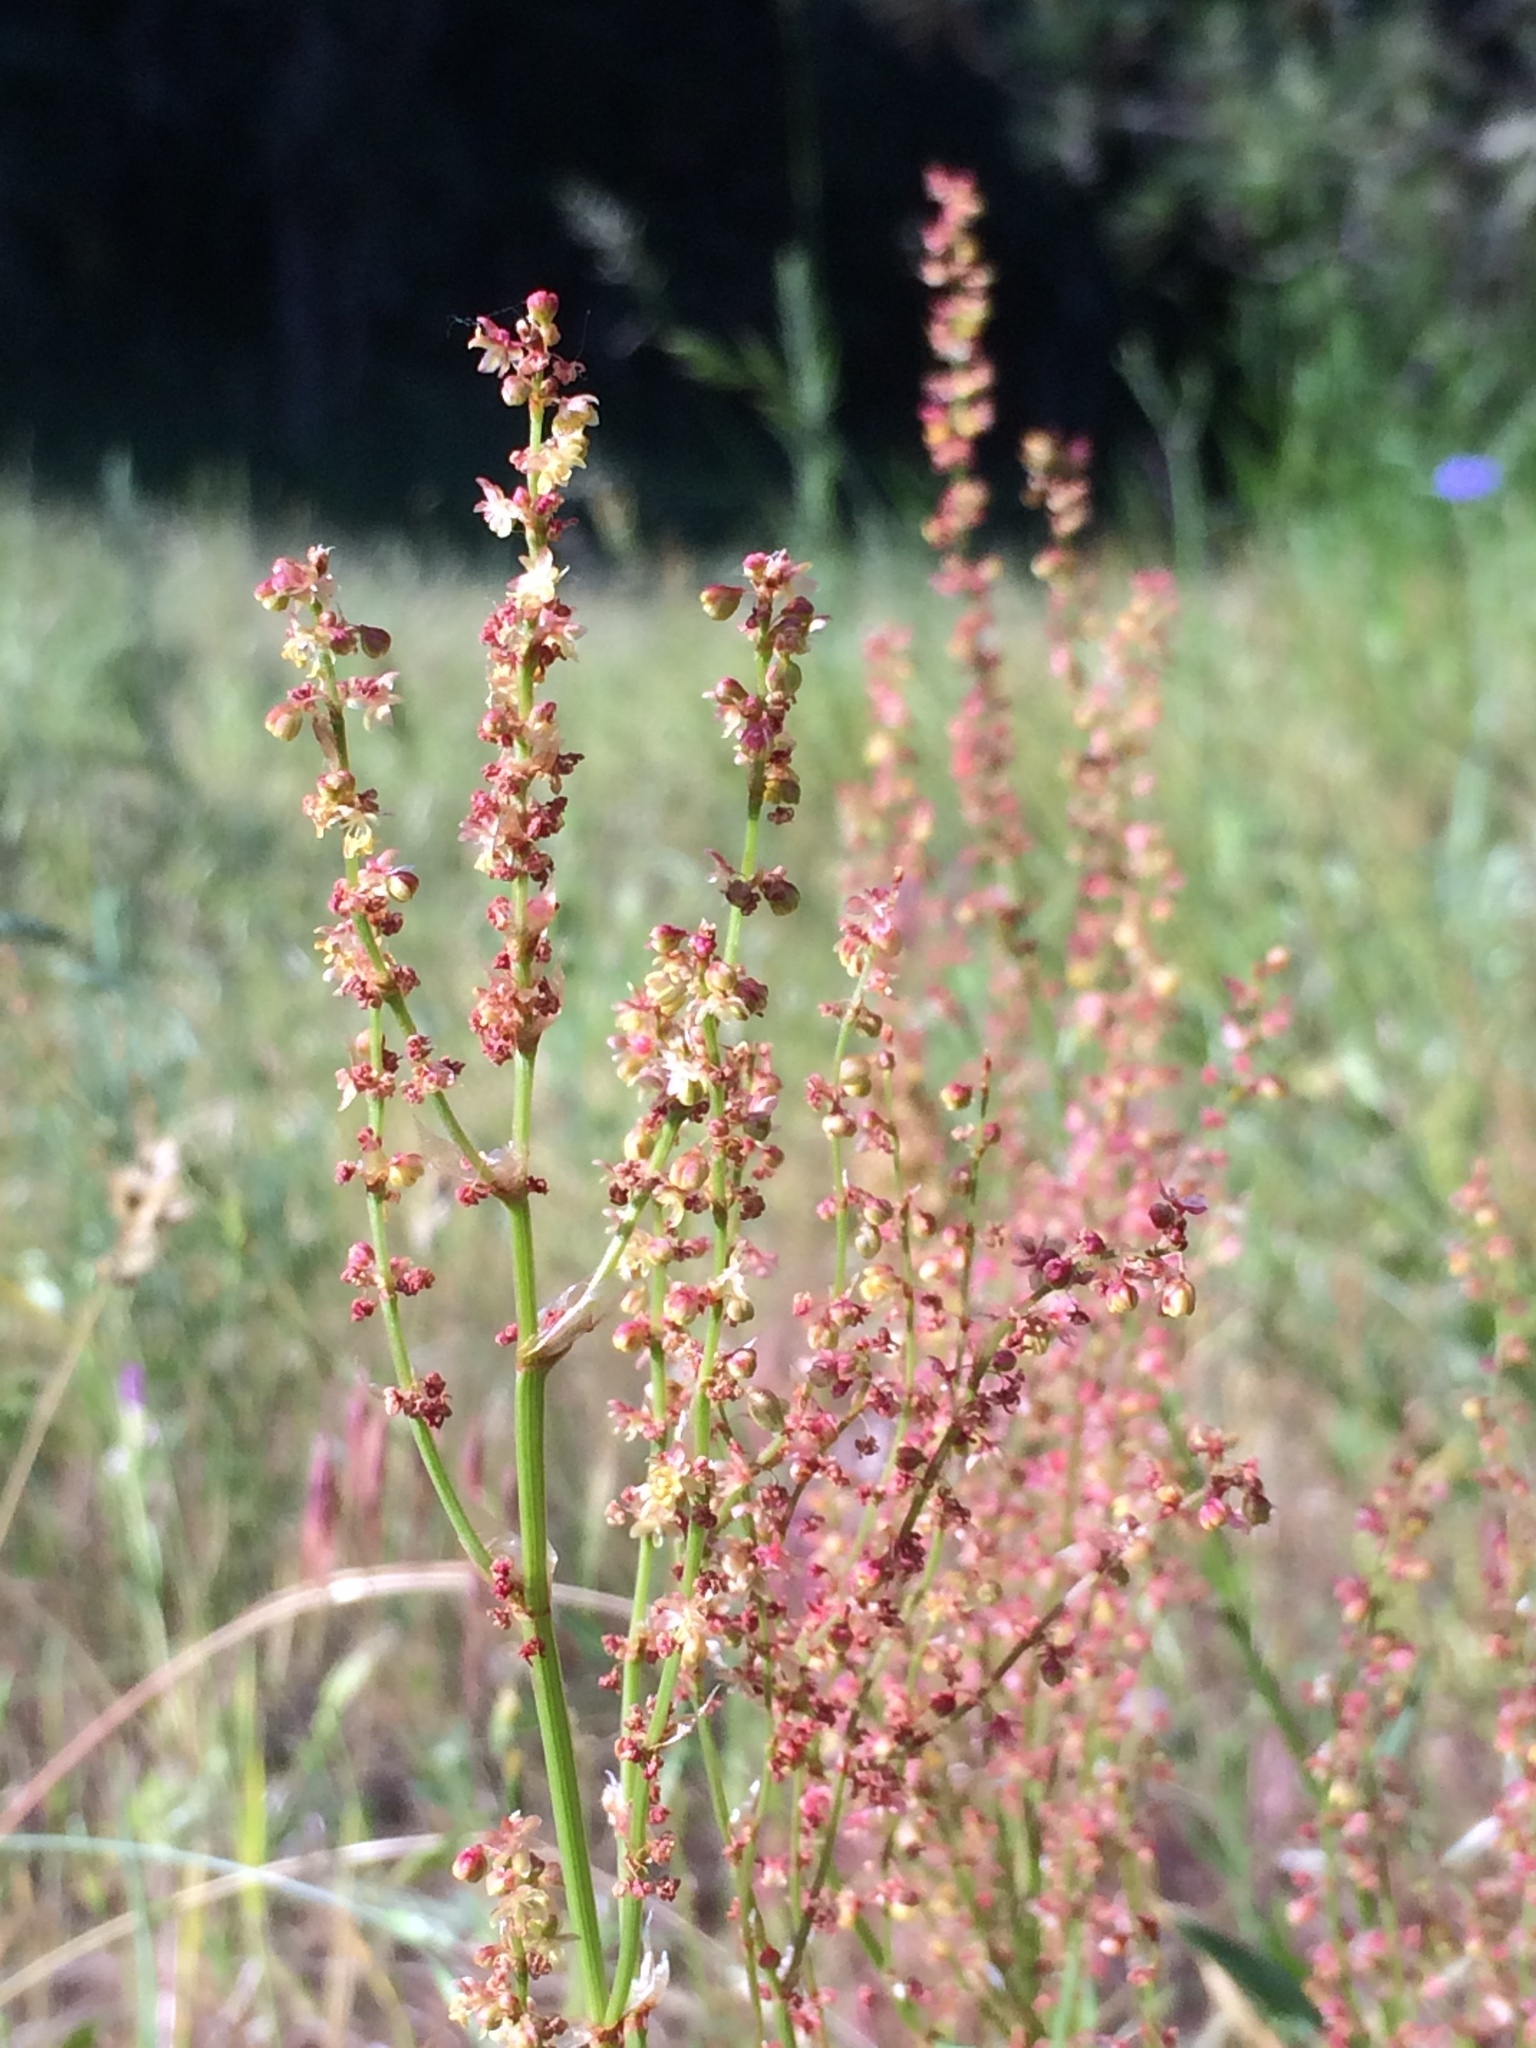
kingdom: Plantae
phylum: Tracheophyta
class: Magnoliopsida
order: Caryophyllales
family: Polygonaceae
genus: Rumex
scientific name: Rumex acetosella
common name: Common sheep sorrel
